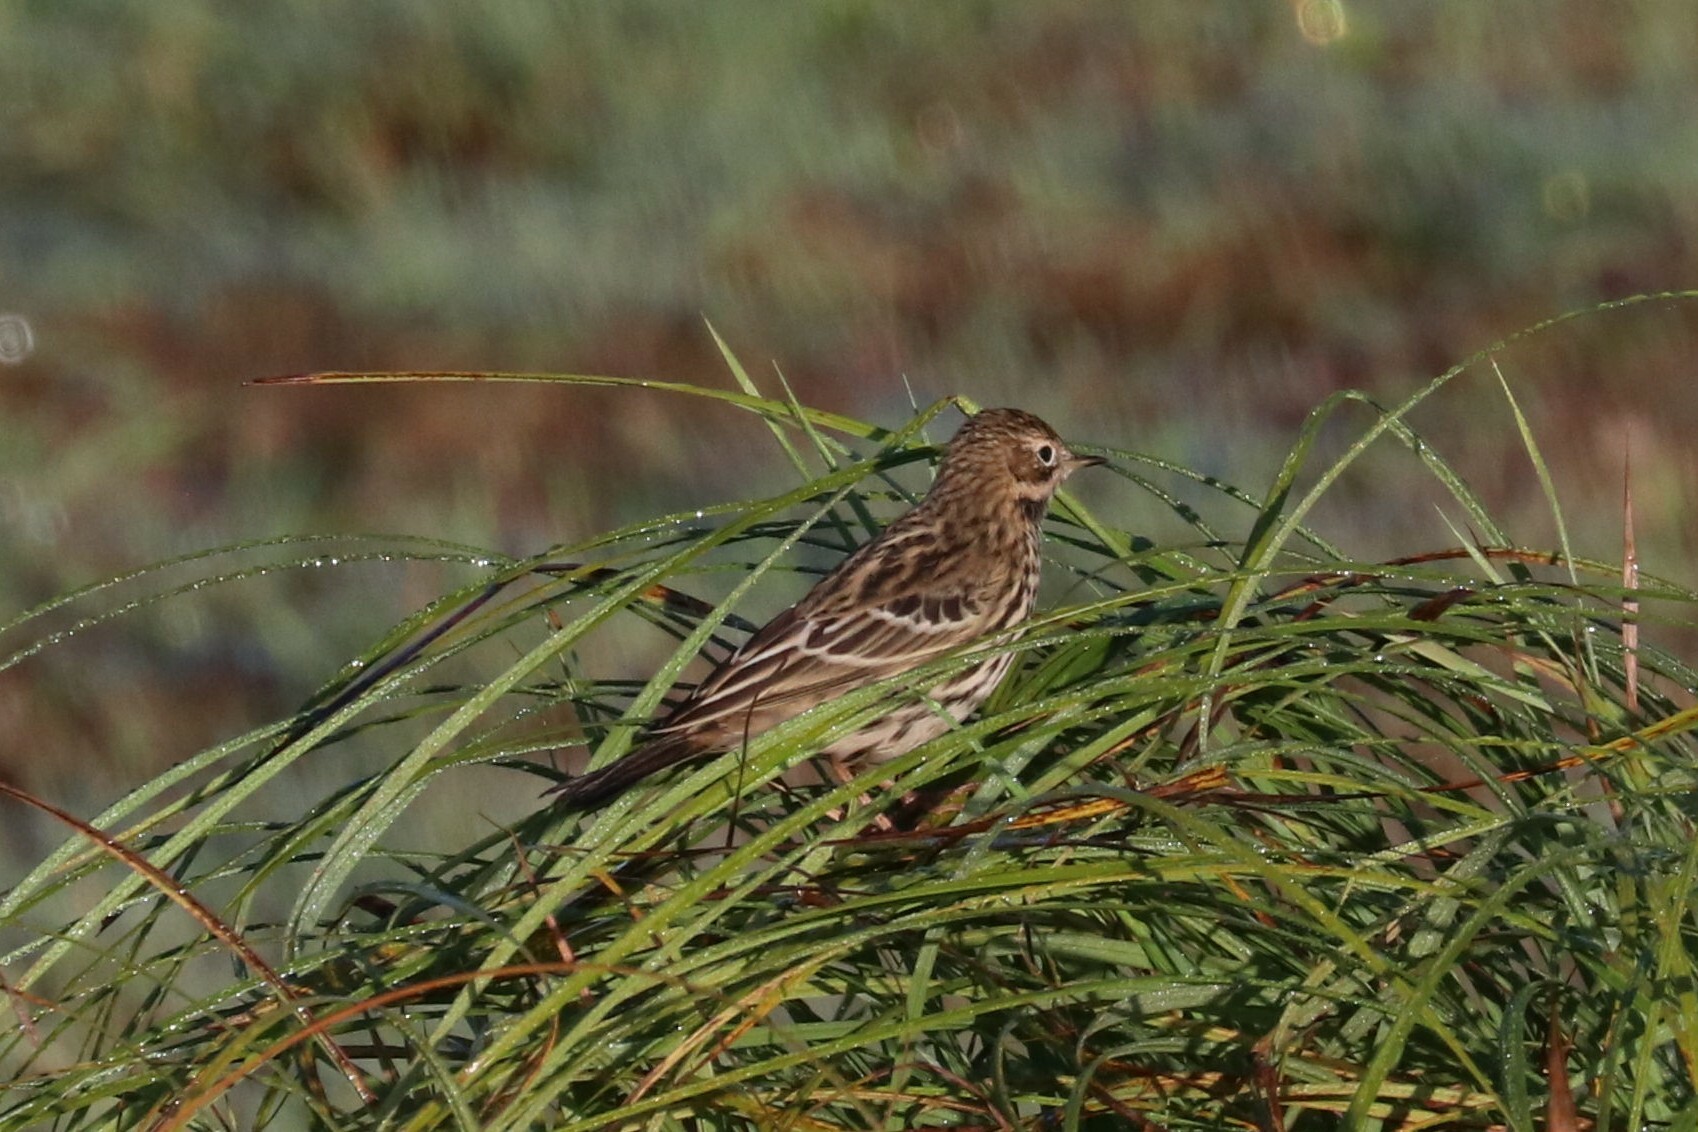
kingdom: Animalia
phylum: Chordata
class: Aves
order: Passeriformes
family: Motacillidae
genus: Anthus
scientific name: Anthus cervinus
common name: Red-throated pipit
